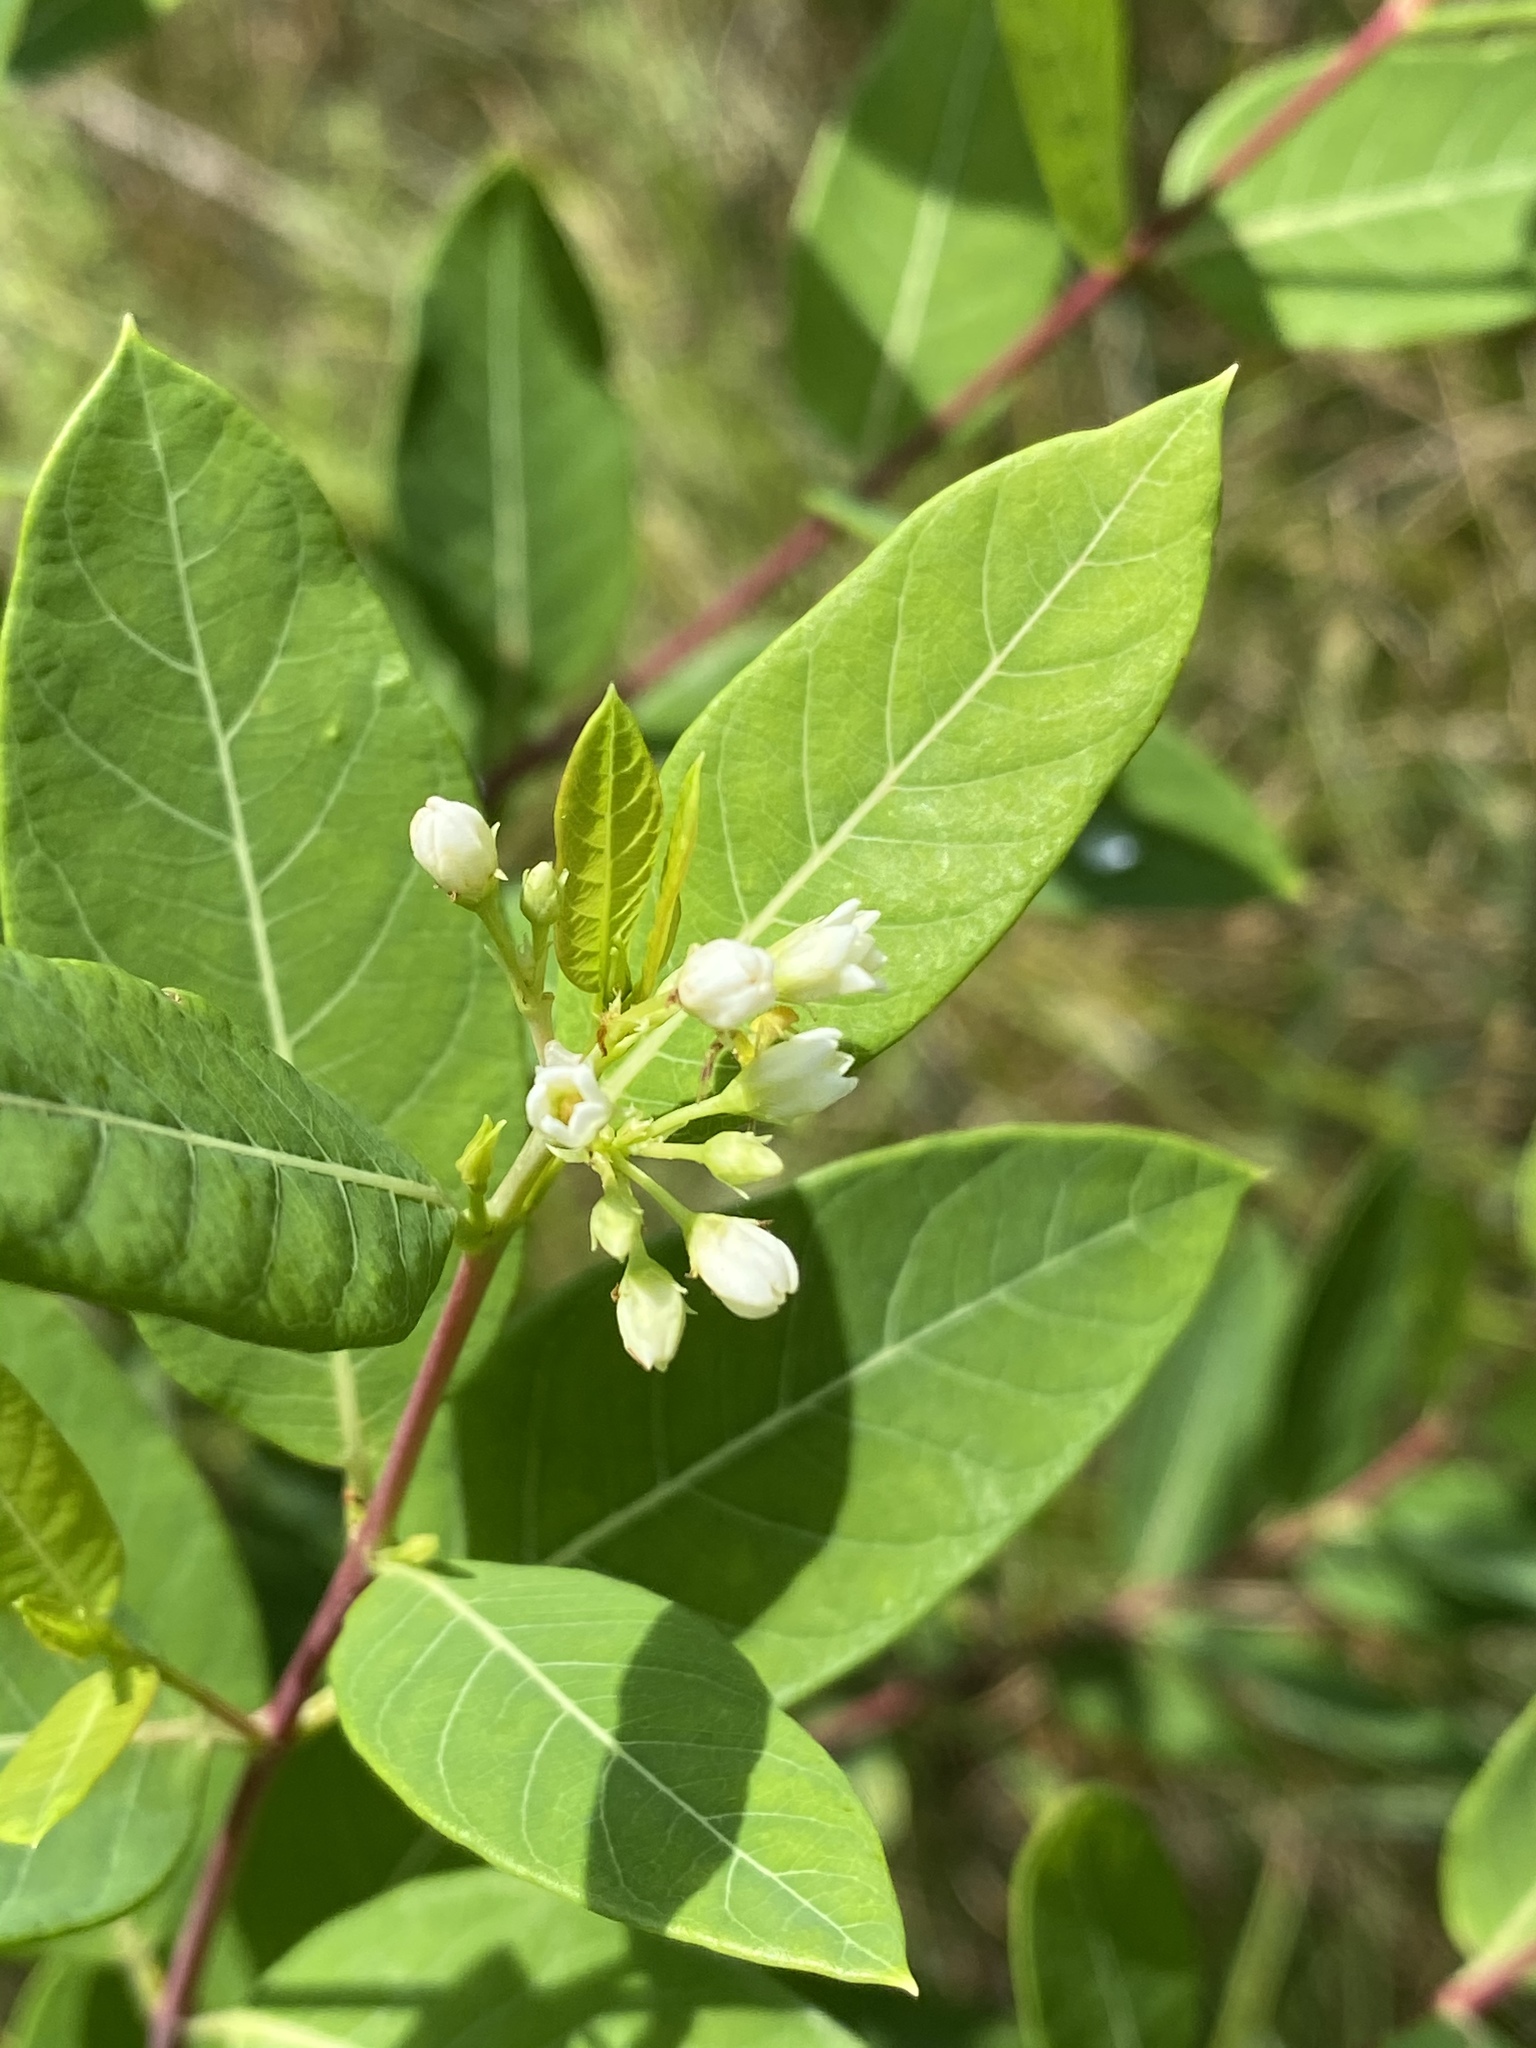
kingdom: Plantae
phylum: Tracheophyta
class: Magnoliopsida
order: Gentianales
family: Apocynaceae
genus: Apocynum
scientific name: Apocynum cannabinum
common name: Hemp dogbane
